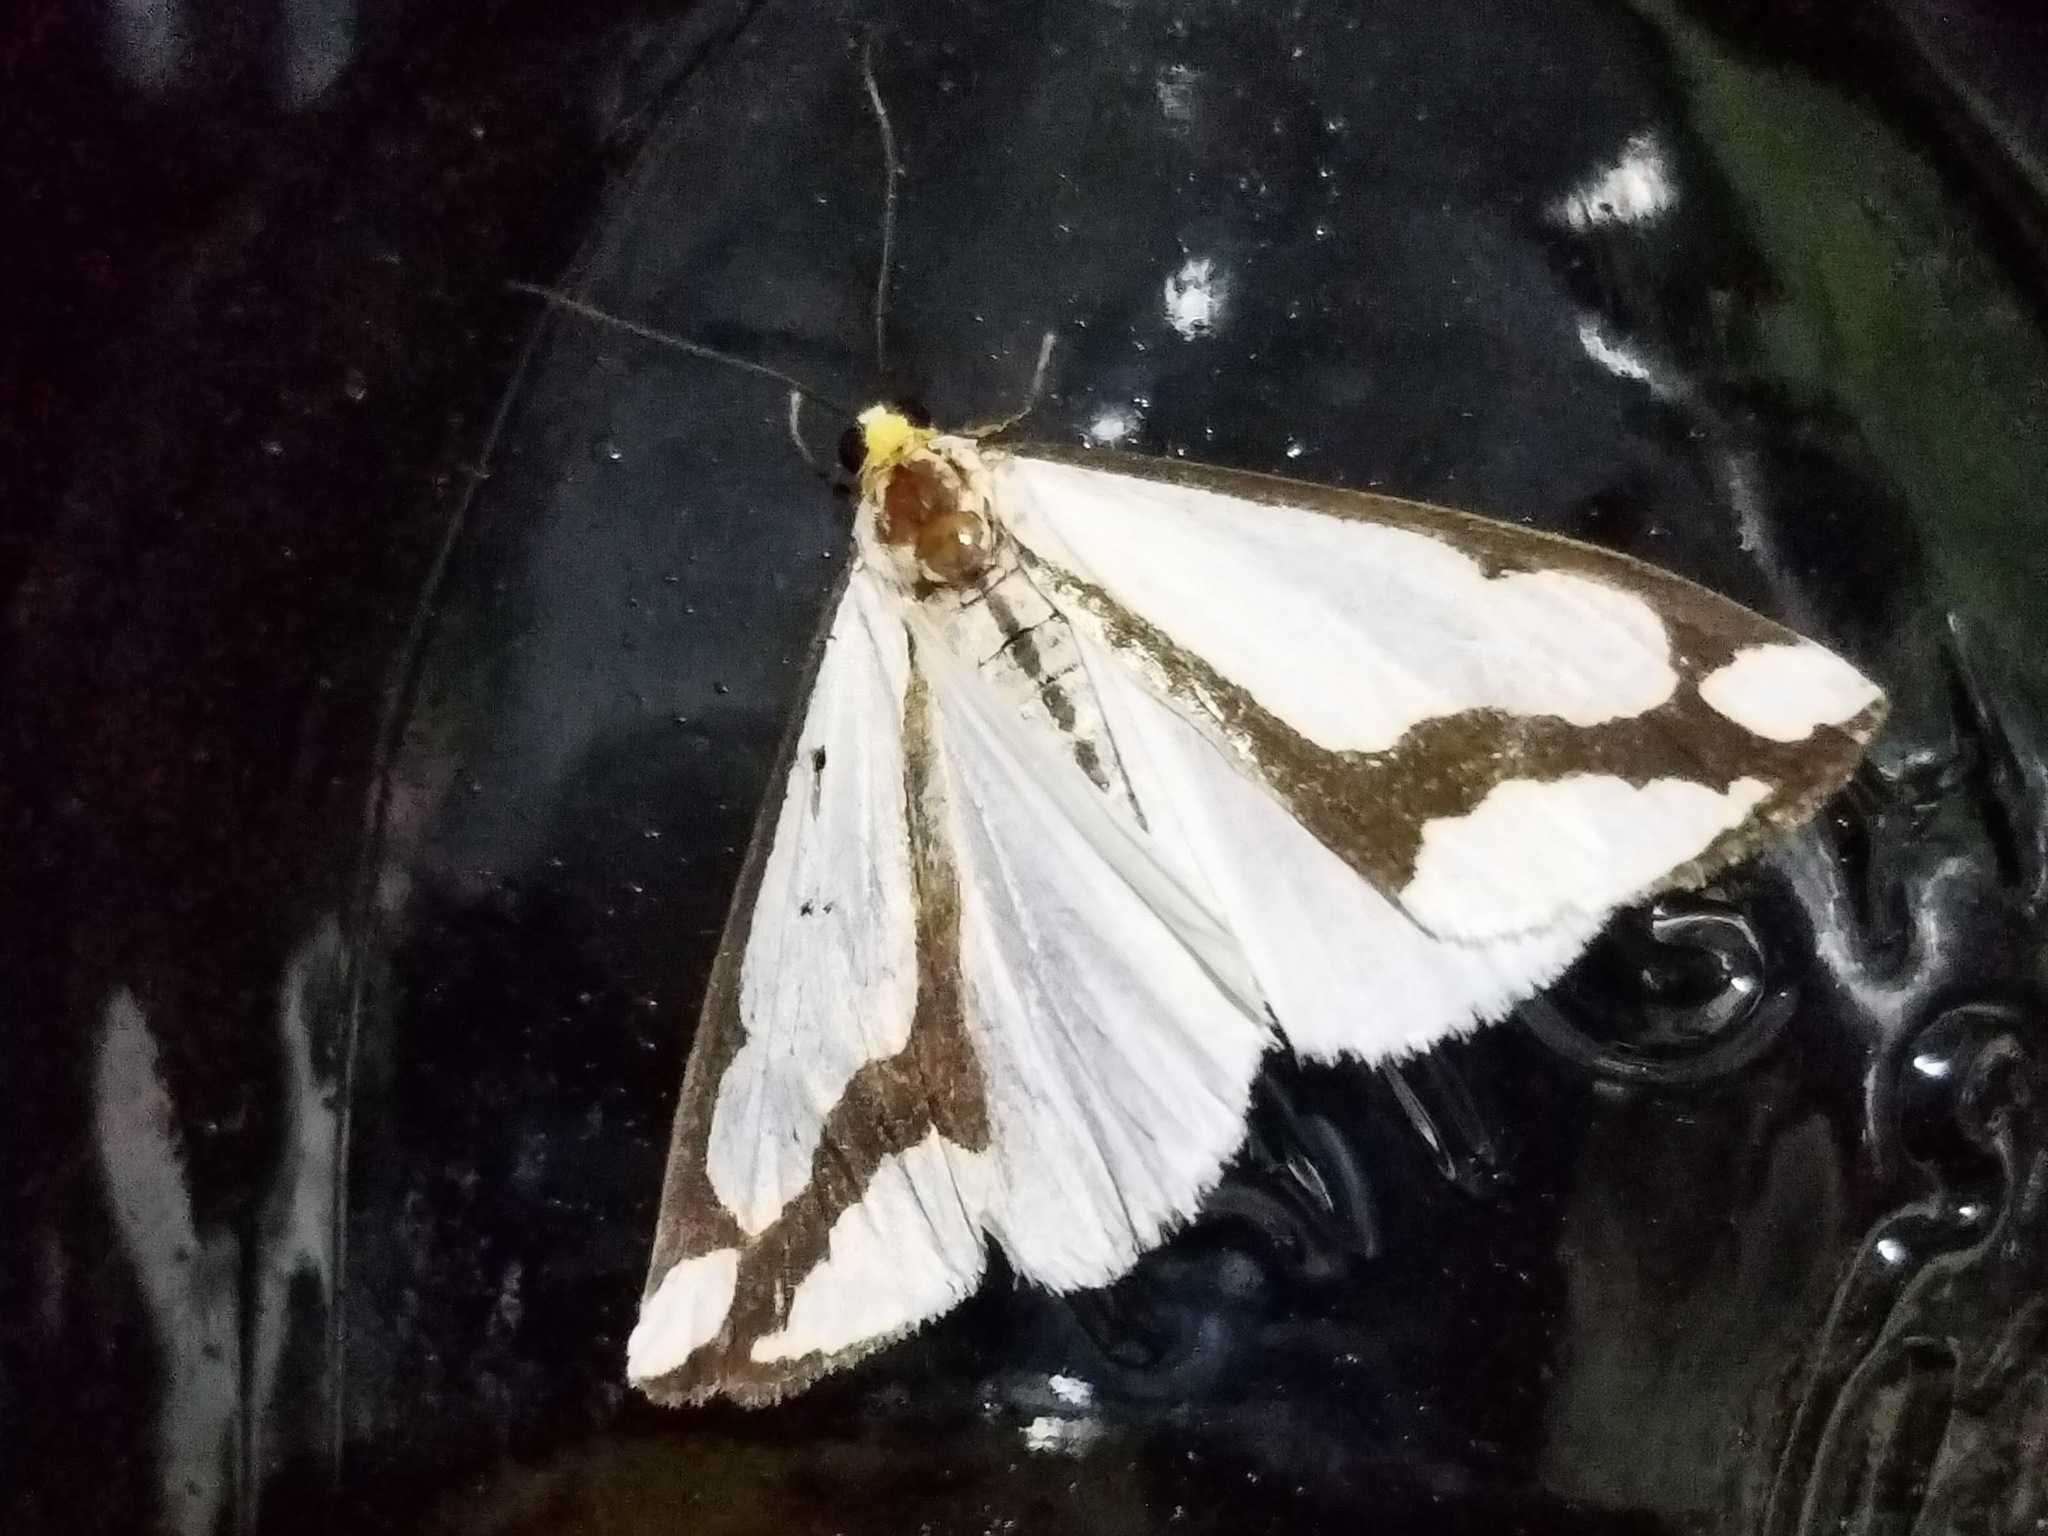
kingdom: Animalia
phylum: Arthropoda
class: Insecta
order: Lepidoptera
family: Erebidae
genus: Haploa
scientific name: Haploa lecontei
